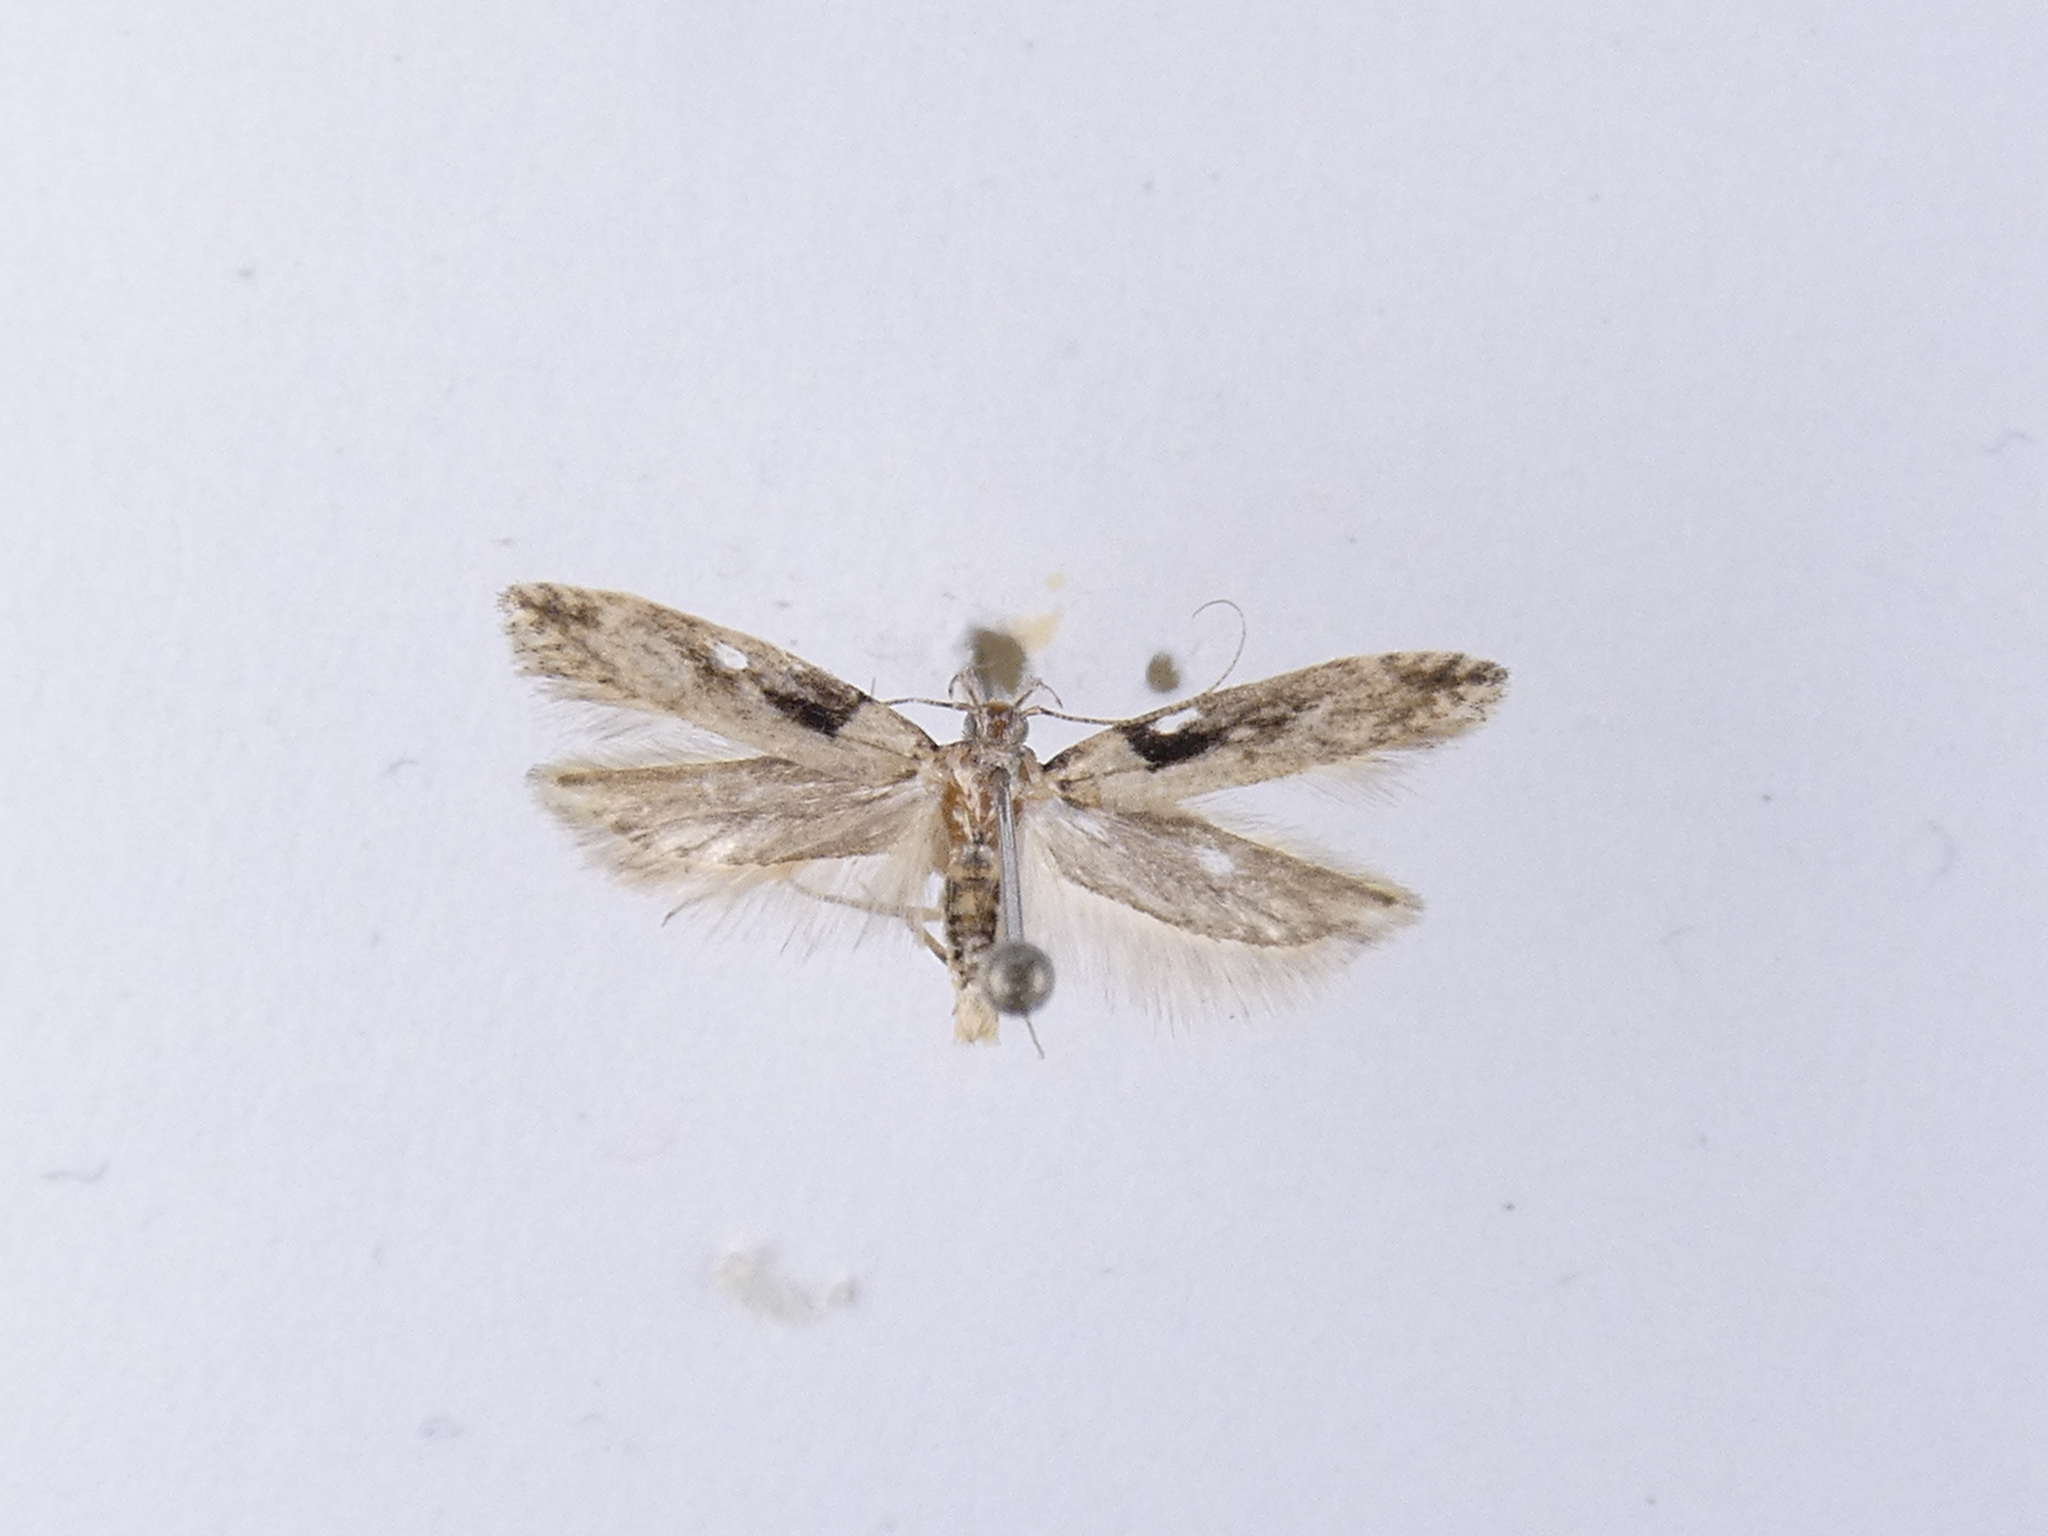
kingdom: Animalia
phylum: Arthropoda
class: Insecta
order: Lepidoptera
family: Gelechiidae
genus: Symmetrischema
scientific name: Symmetrischema tangolias
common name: Moth
